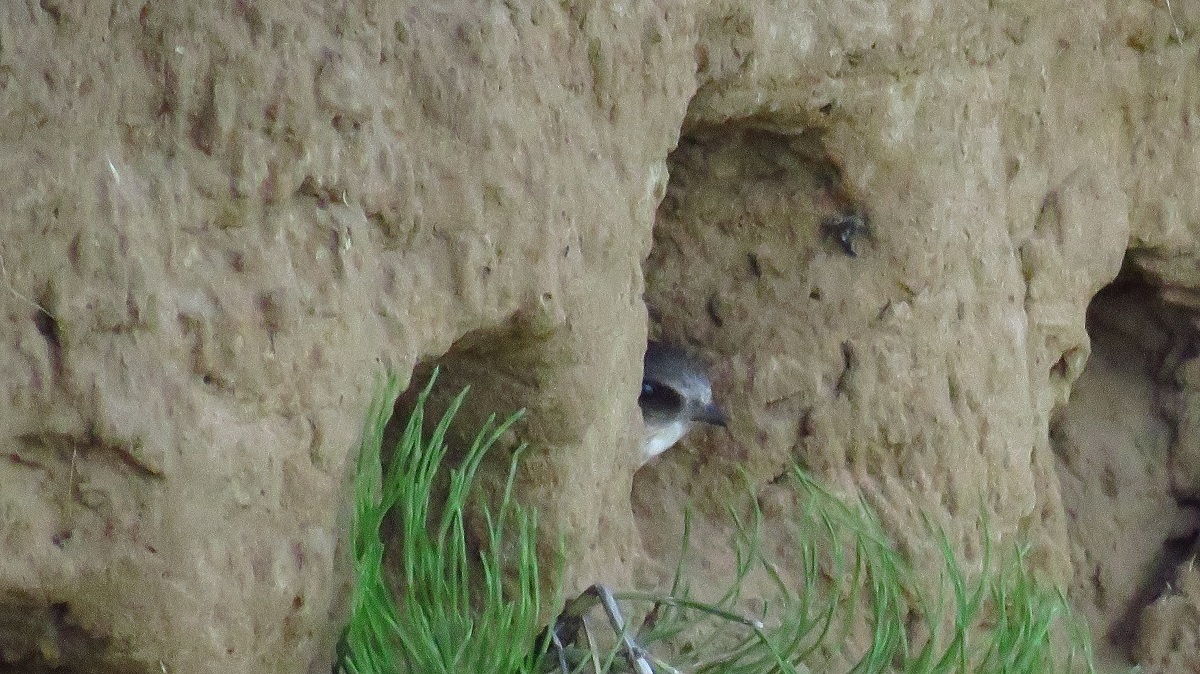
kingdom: Animalia
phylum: Chordata
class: Aves
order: Passeriformes
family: Hirundinidae
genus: Riparia
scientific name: Riparia riparia
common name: Sand martin
